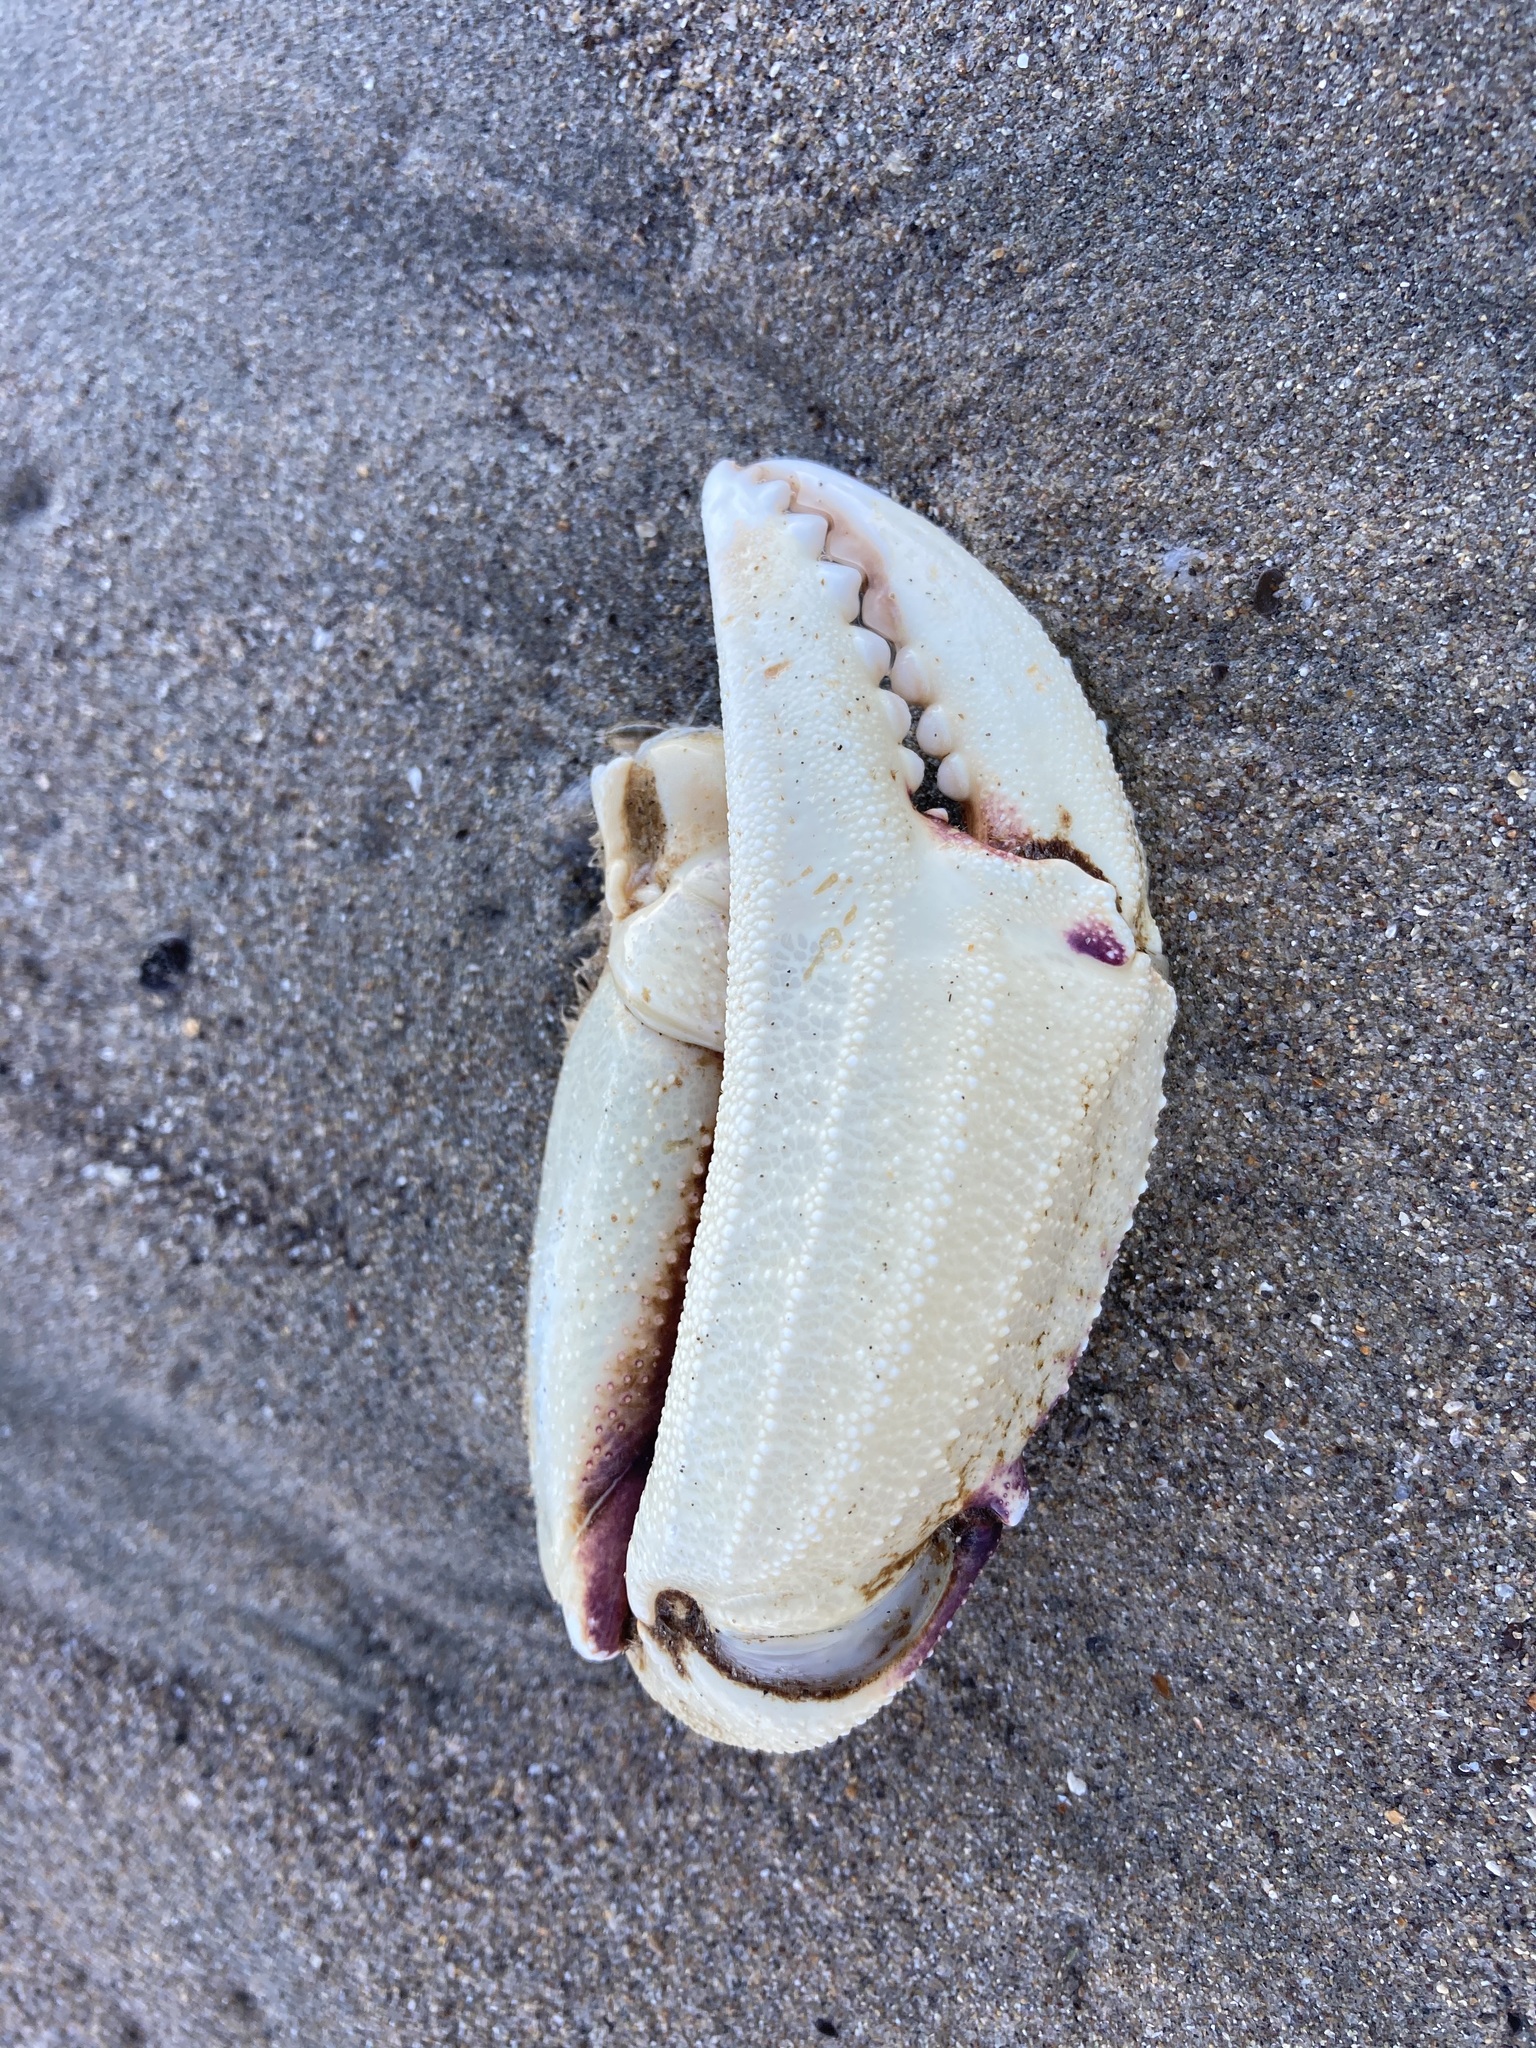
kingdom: Animalia
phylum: Arthropoda
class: Malacostraca
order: Decapoda
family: Cancridae
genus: Metacarcinus
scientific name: Metacarcinus magister
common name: Californian crab
